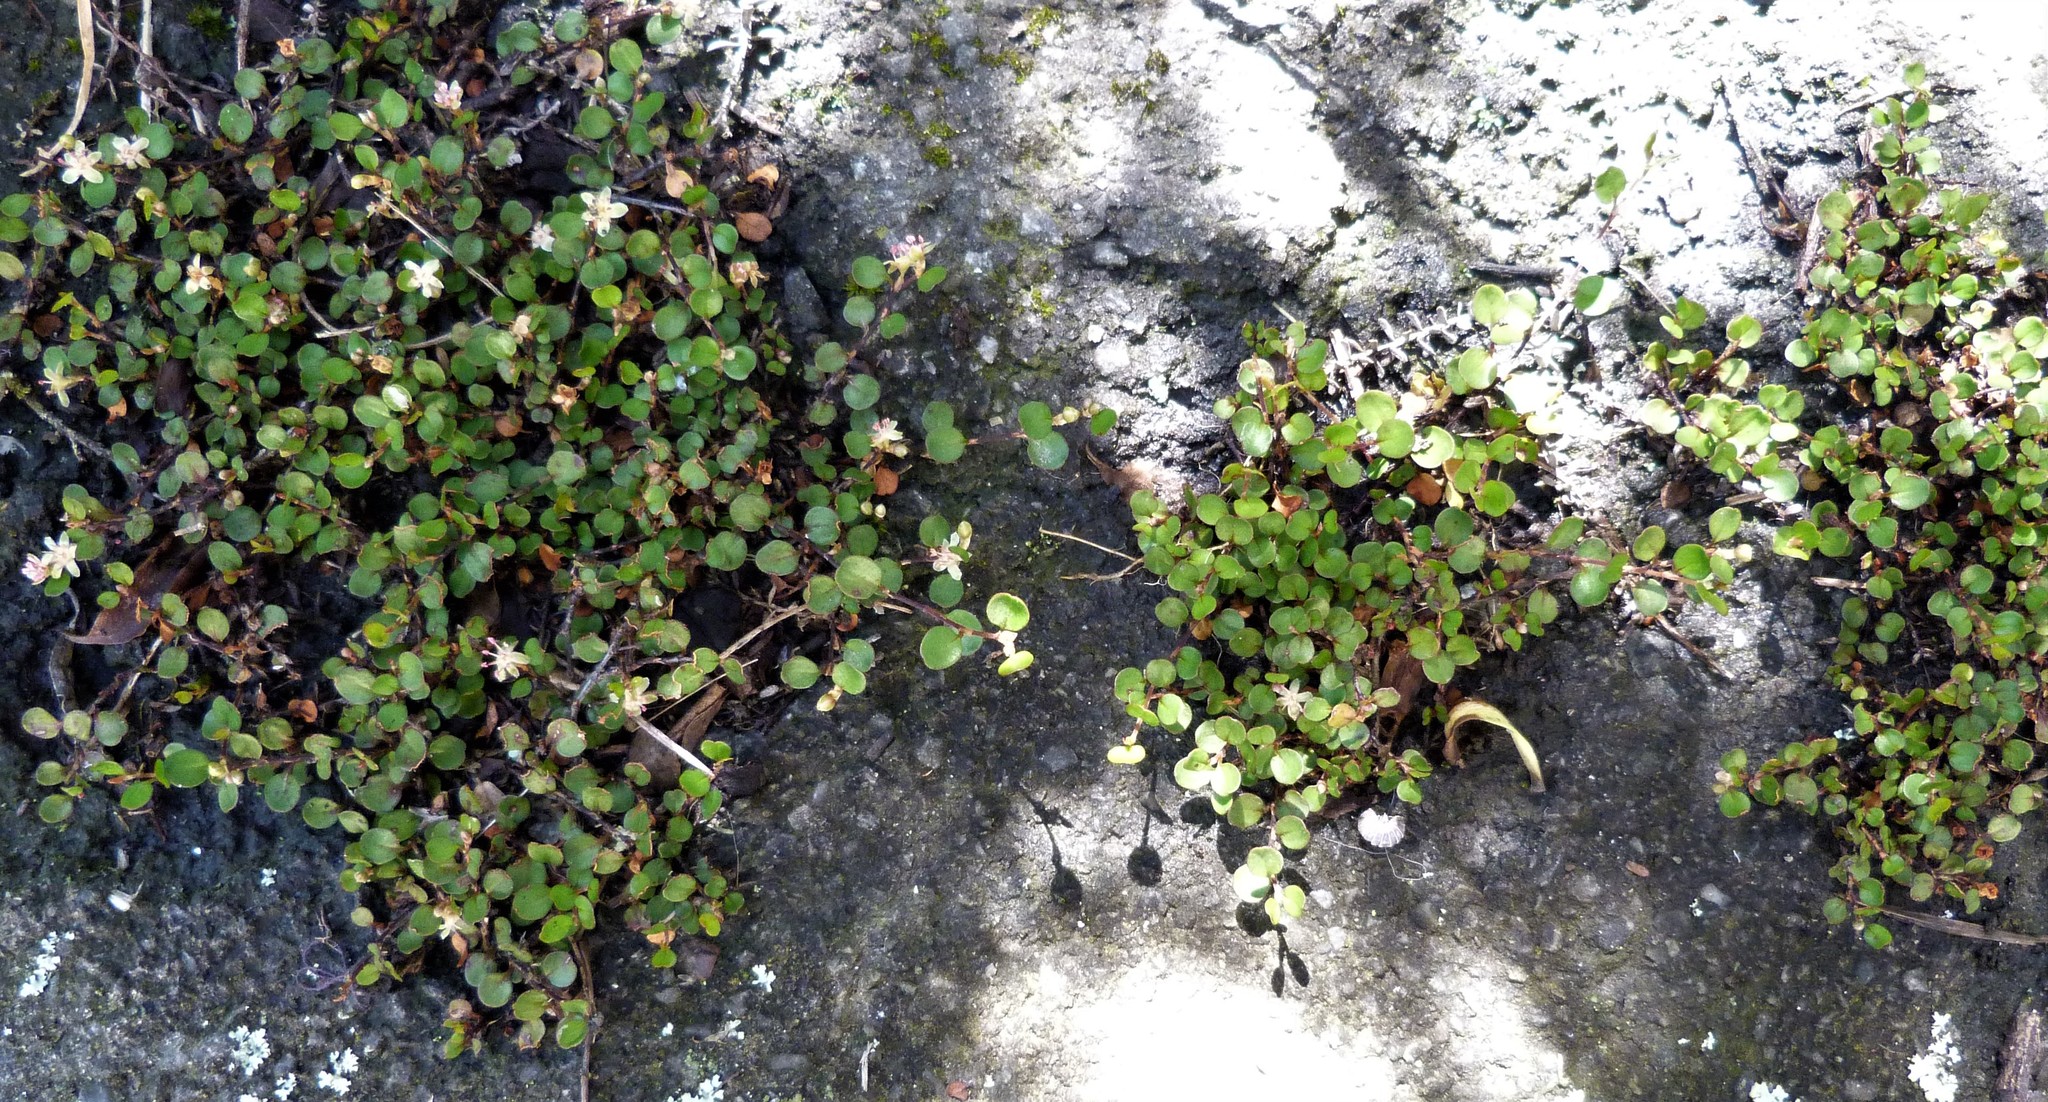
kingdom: Plantae
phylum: Tracheophyta
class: Magnoliopsida
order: Caryophyllales
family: Polygonaceae
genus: Muehlenbeckia
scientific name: Muehlenbeckia axillaris
